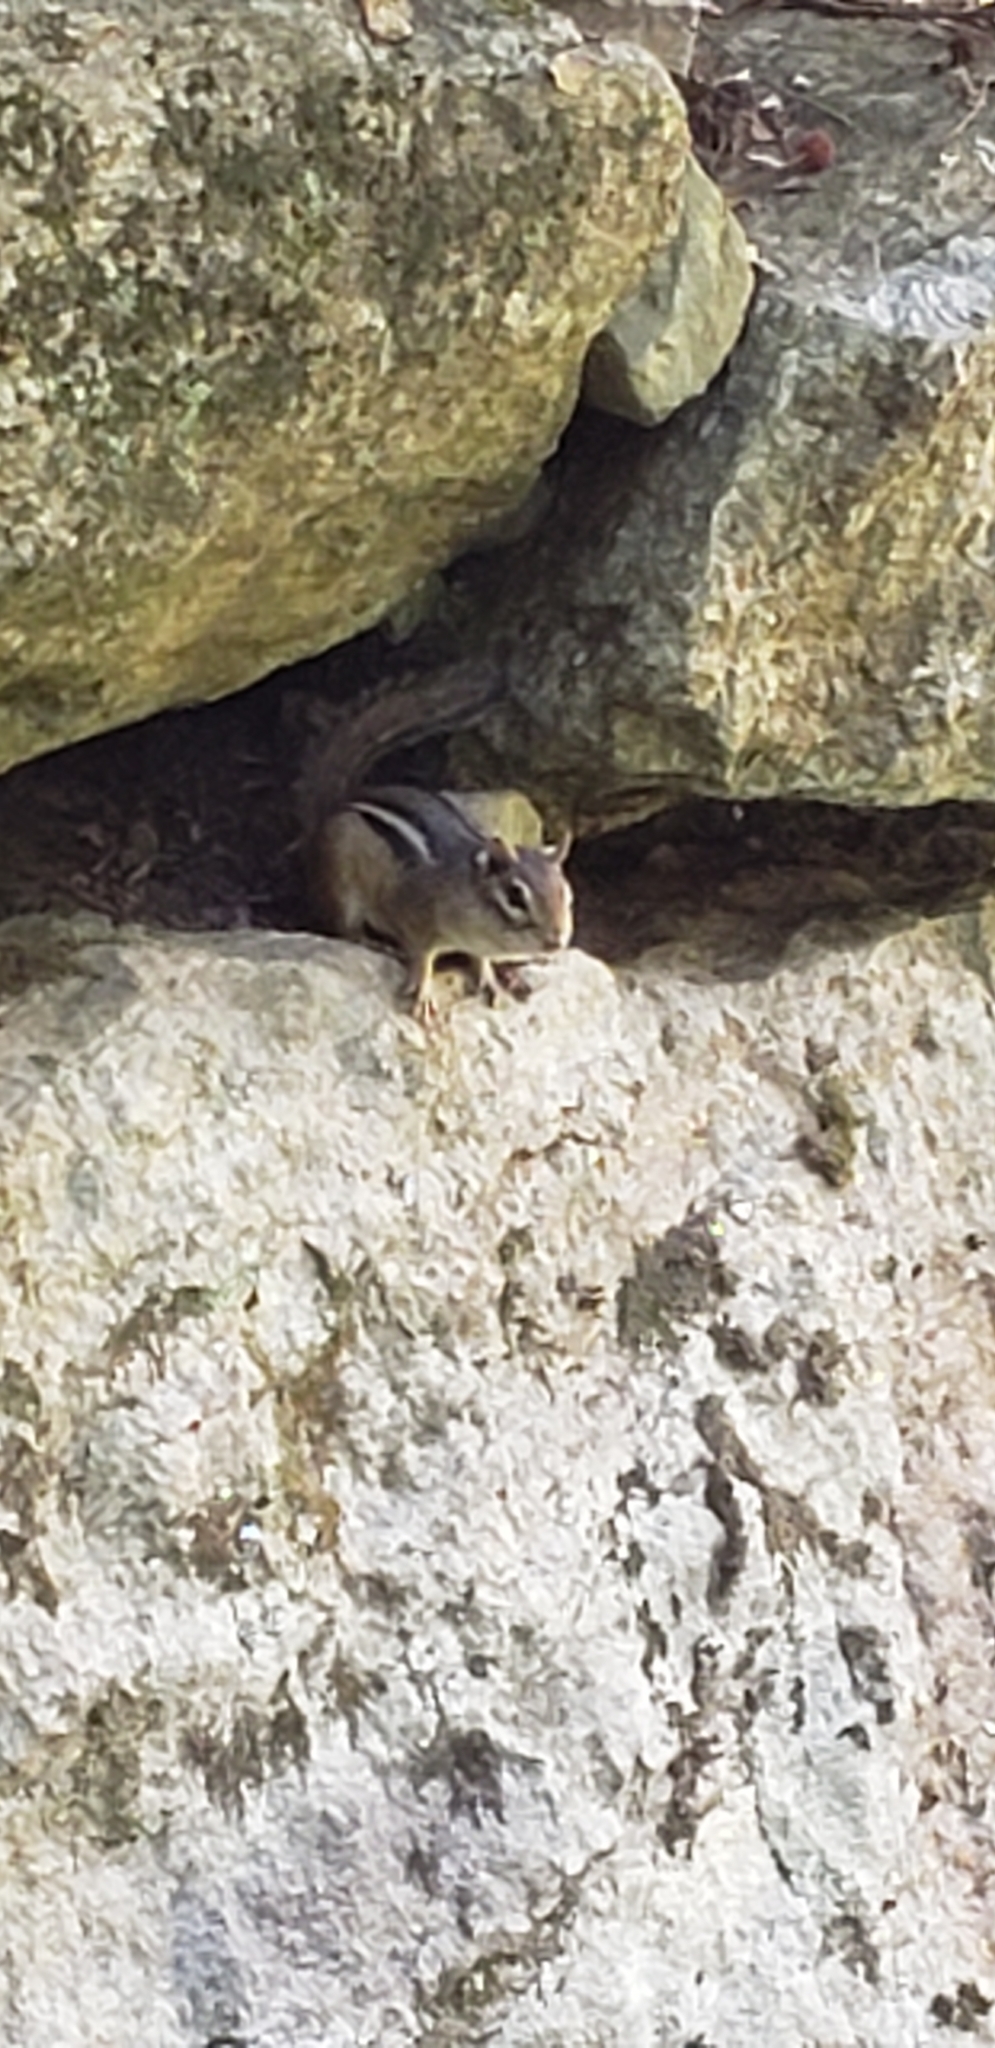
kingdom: Animalia
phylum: Chordata
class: Mammalia
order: Rodentia
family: Sciuridae
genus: Tamias
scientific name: Tamias striatus
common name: Eastern chipmunk
